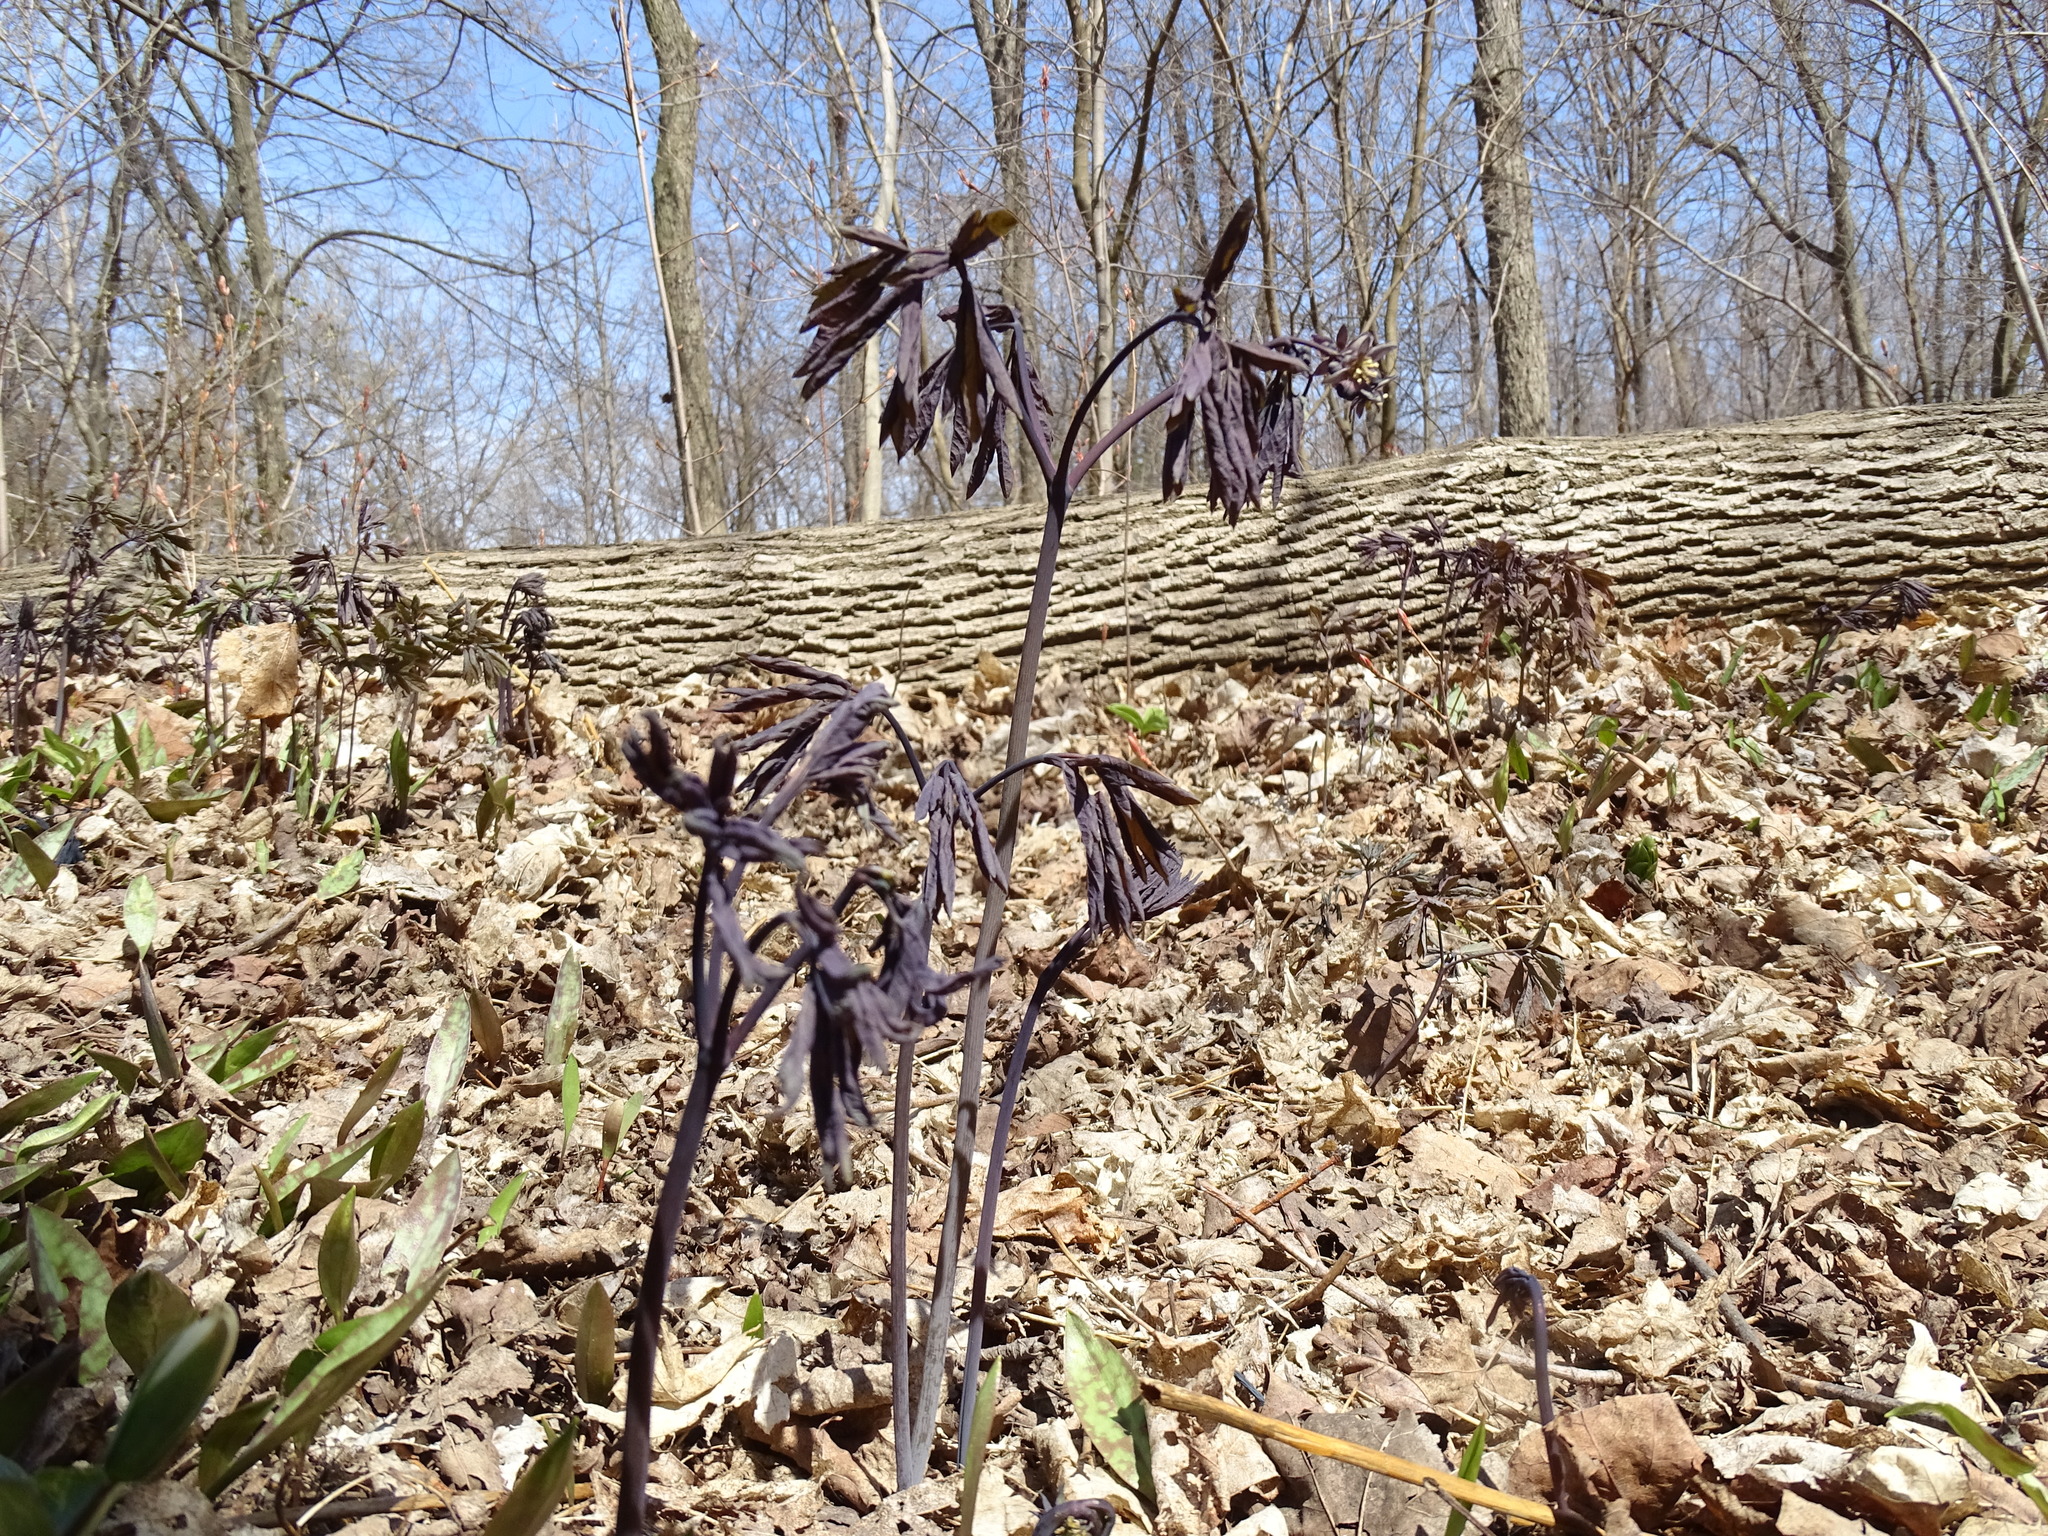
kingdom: Plantae
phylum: Tracheophyta
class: Magnoliopsida
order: Ranunculales
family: Berberidaceae
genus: Caulophyllum
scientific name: Caulophyllum giganteum
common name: Blue cohosh
